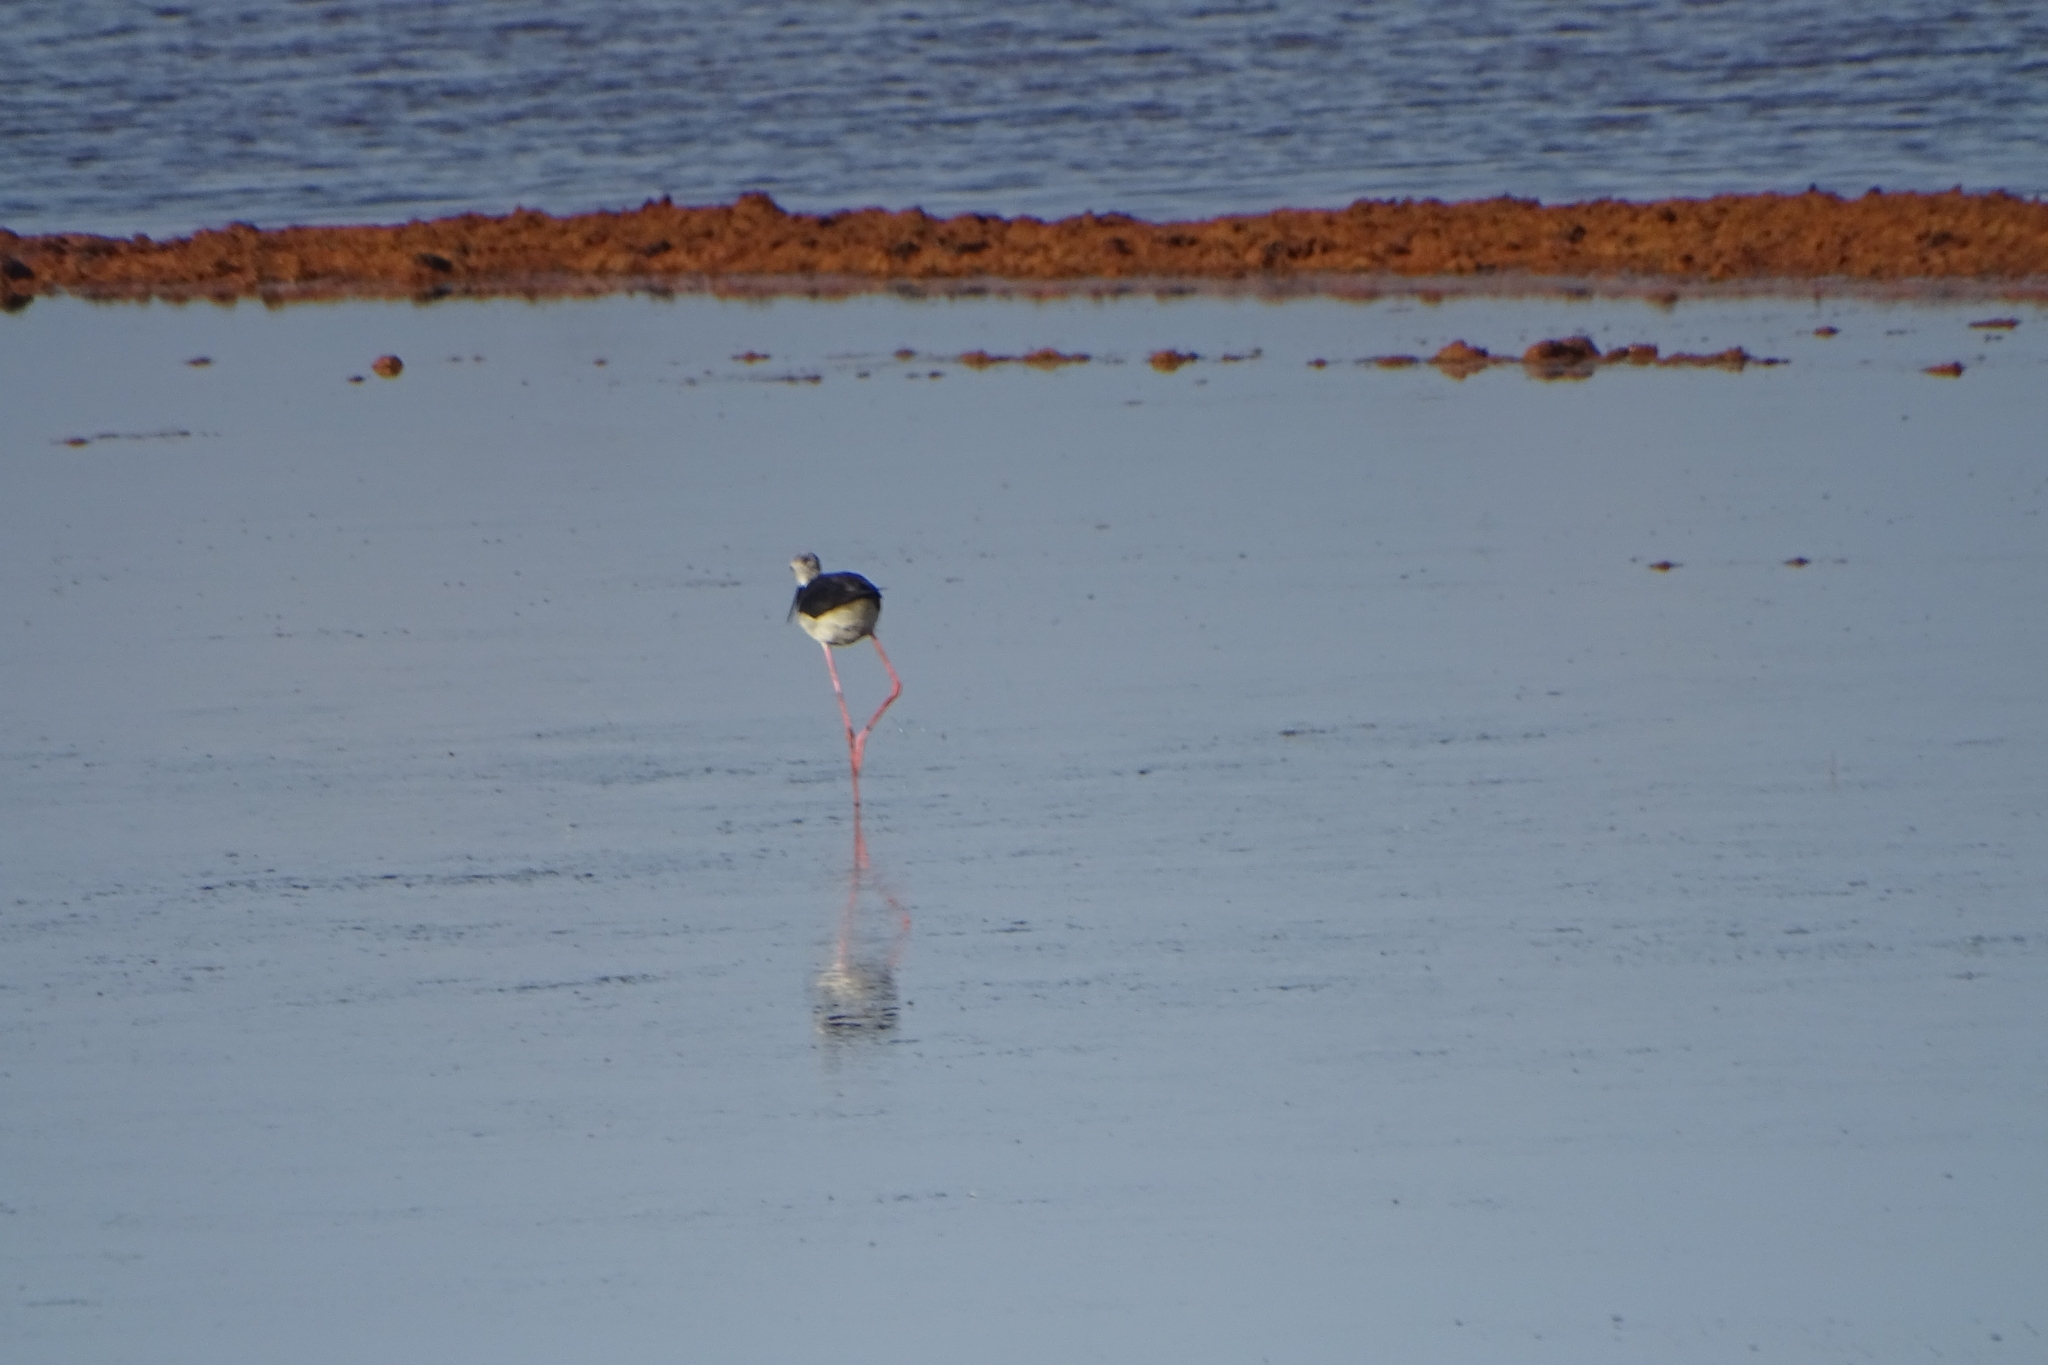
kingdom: Animalia
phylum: Chordata
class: Aves
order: Charadriiformes
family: Recurvirostridae
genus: Himantopus
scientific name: Himantopus himantopus
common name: Black-winged stilt
